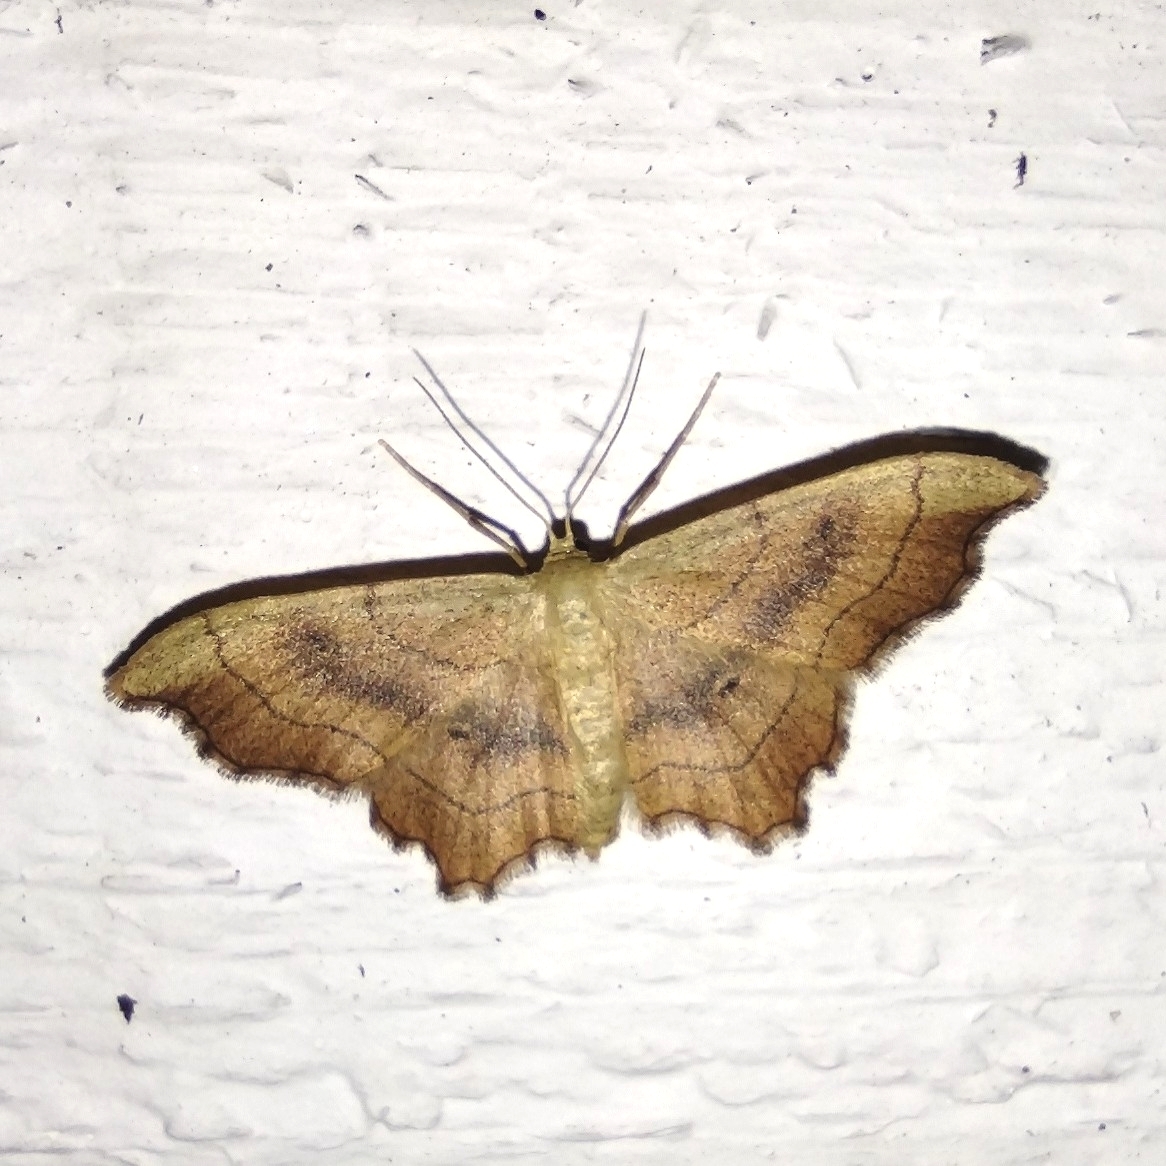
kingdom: Animalia
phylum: Arthropoda
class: Insecta
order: Lepidoptera
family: Geometridae
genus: Idaea
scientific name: Idaea emarginata
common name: Small scallop
